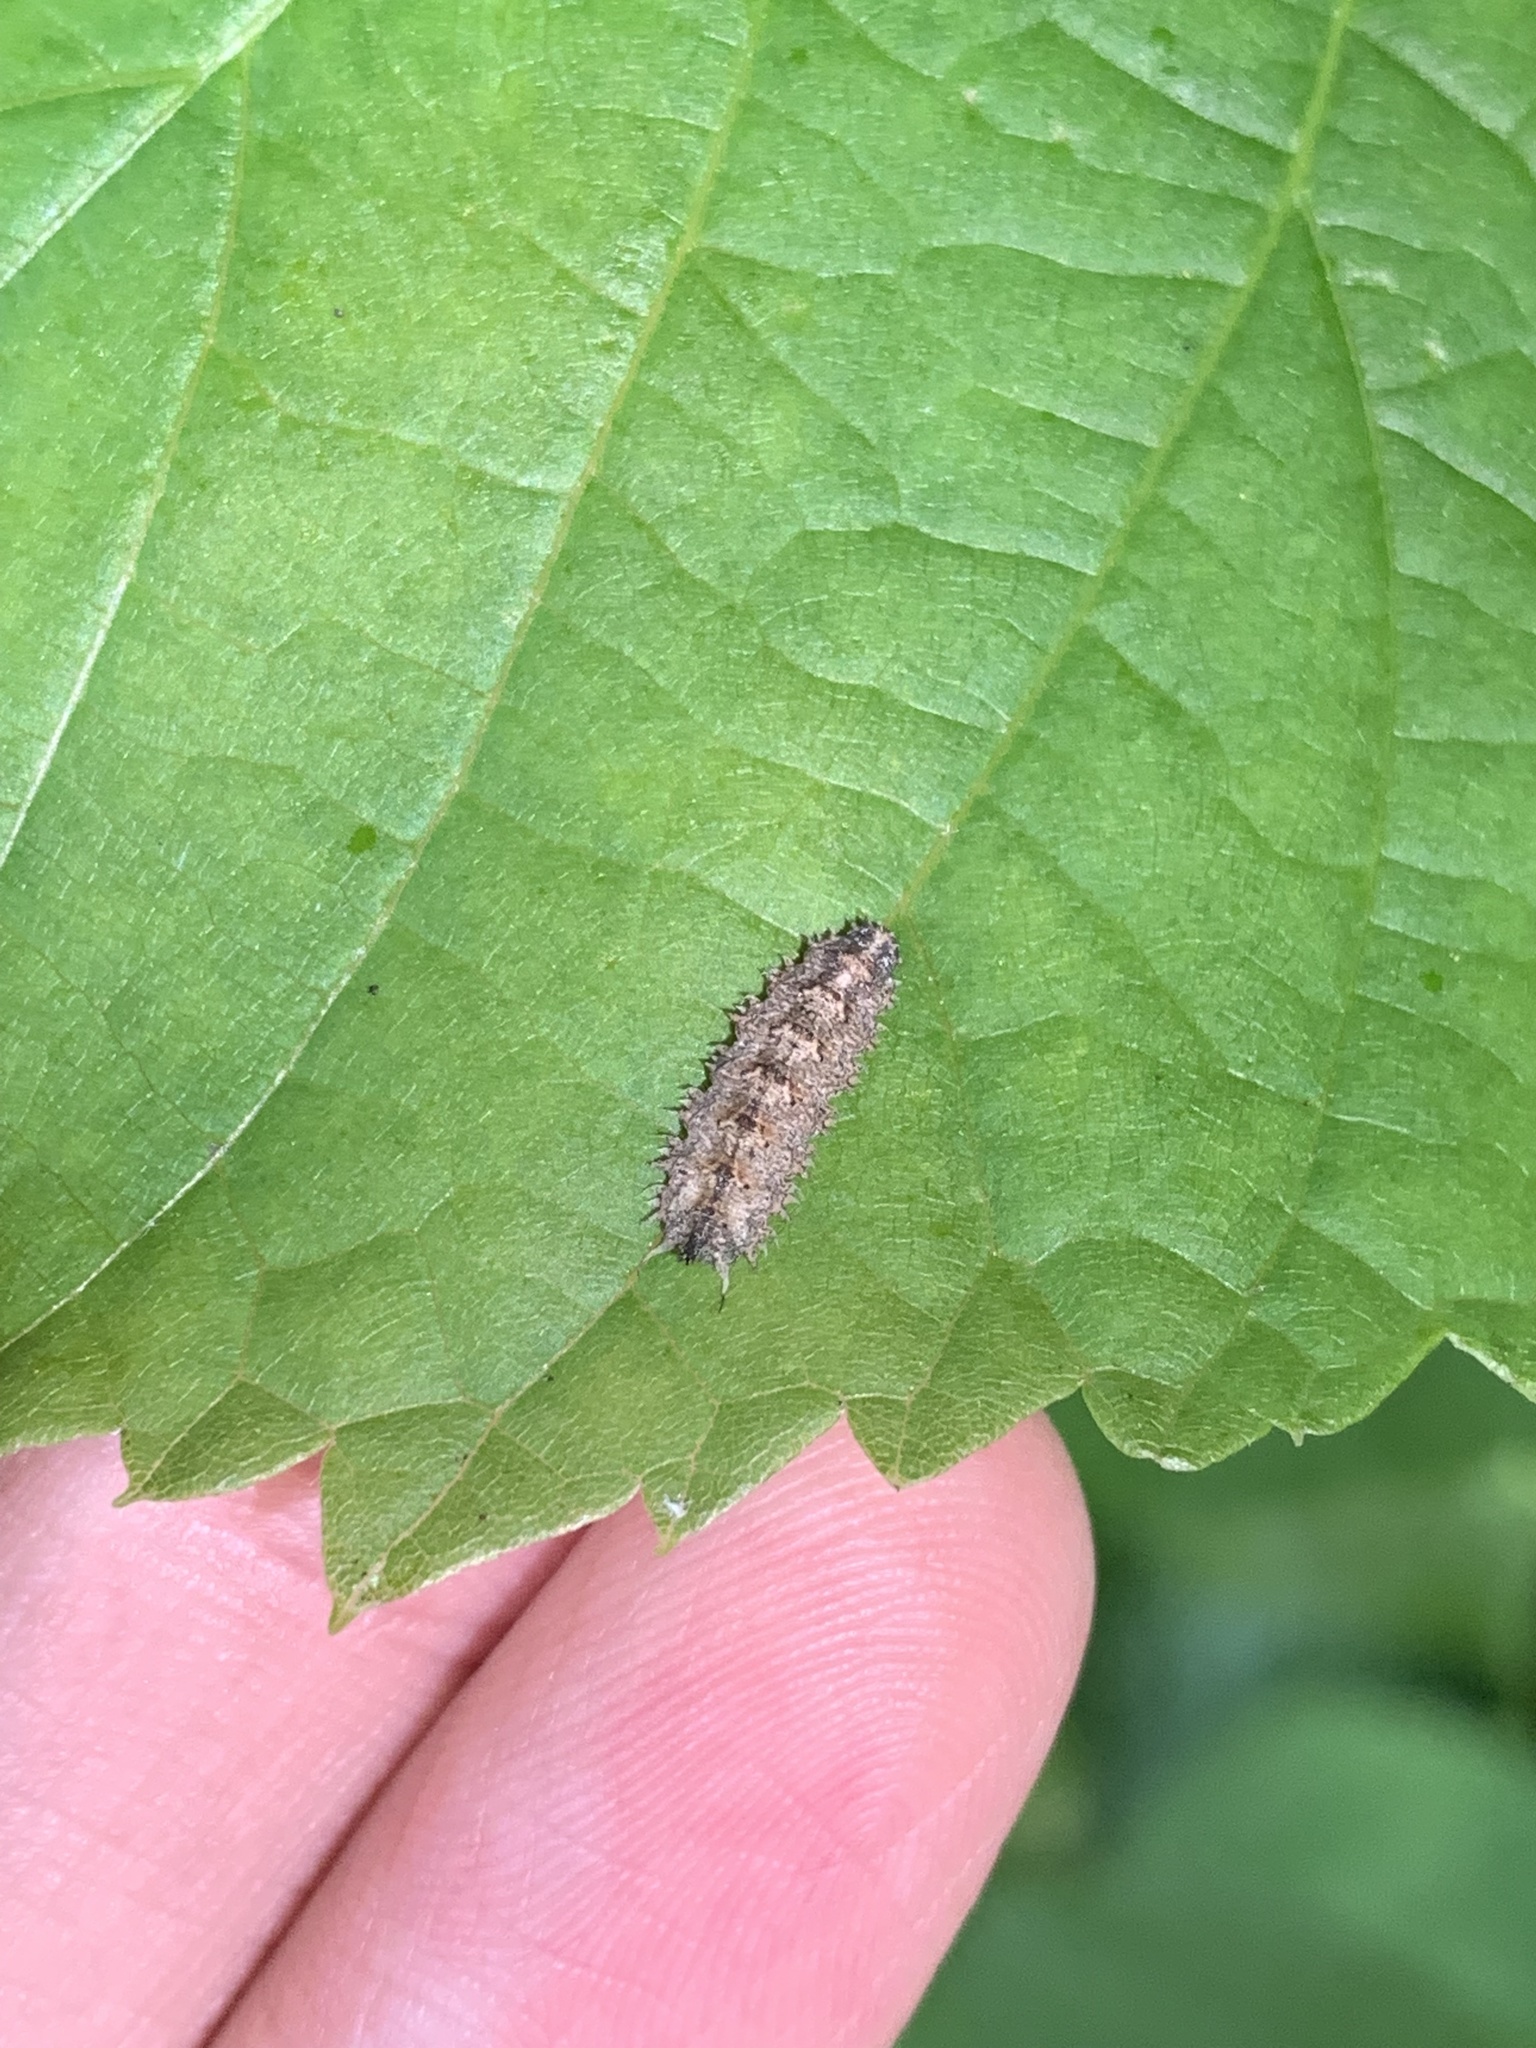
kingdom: Animalia
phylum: Arthropoda
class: Insecta
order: Diptera
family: Syrphidae
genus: Dasysyrphus
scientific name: Dasysyrphus
